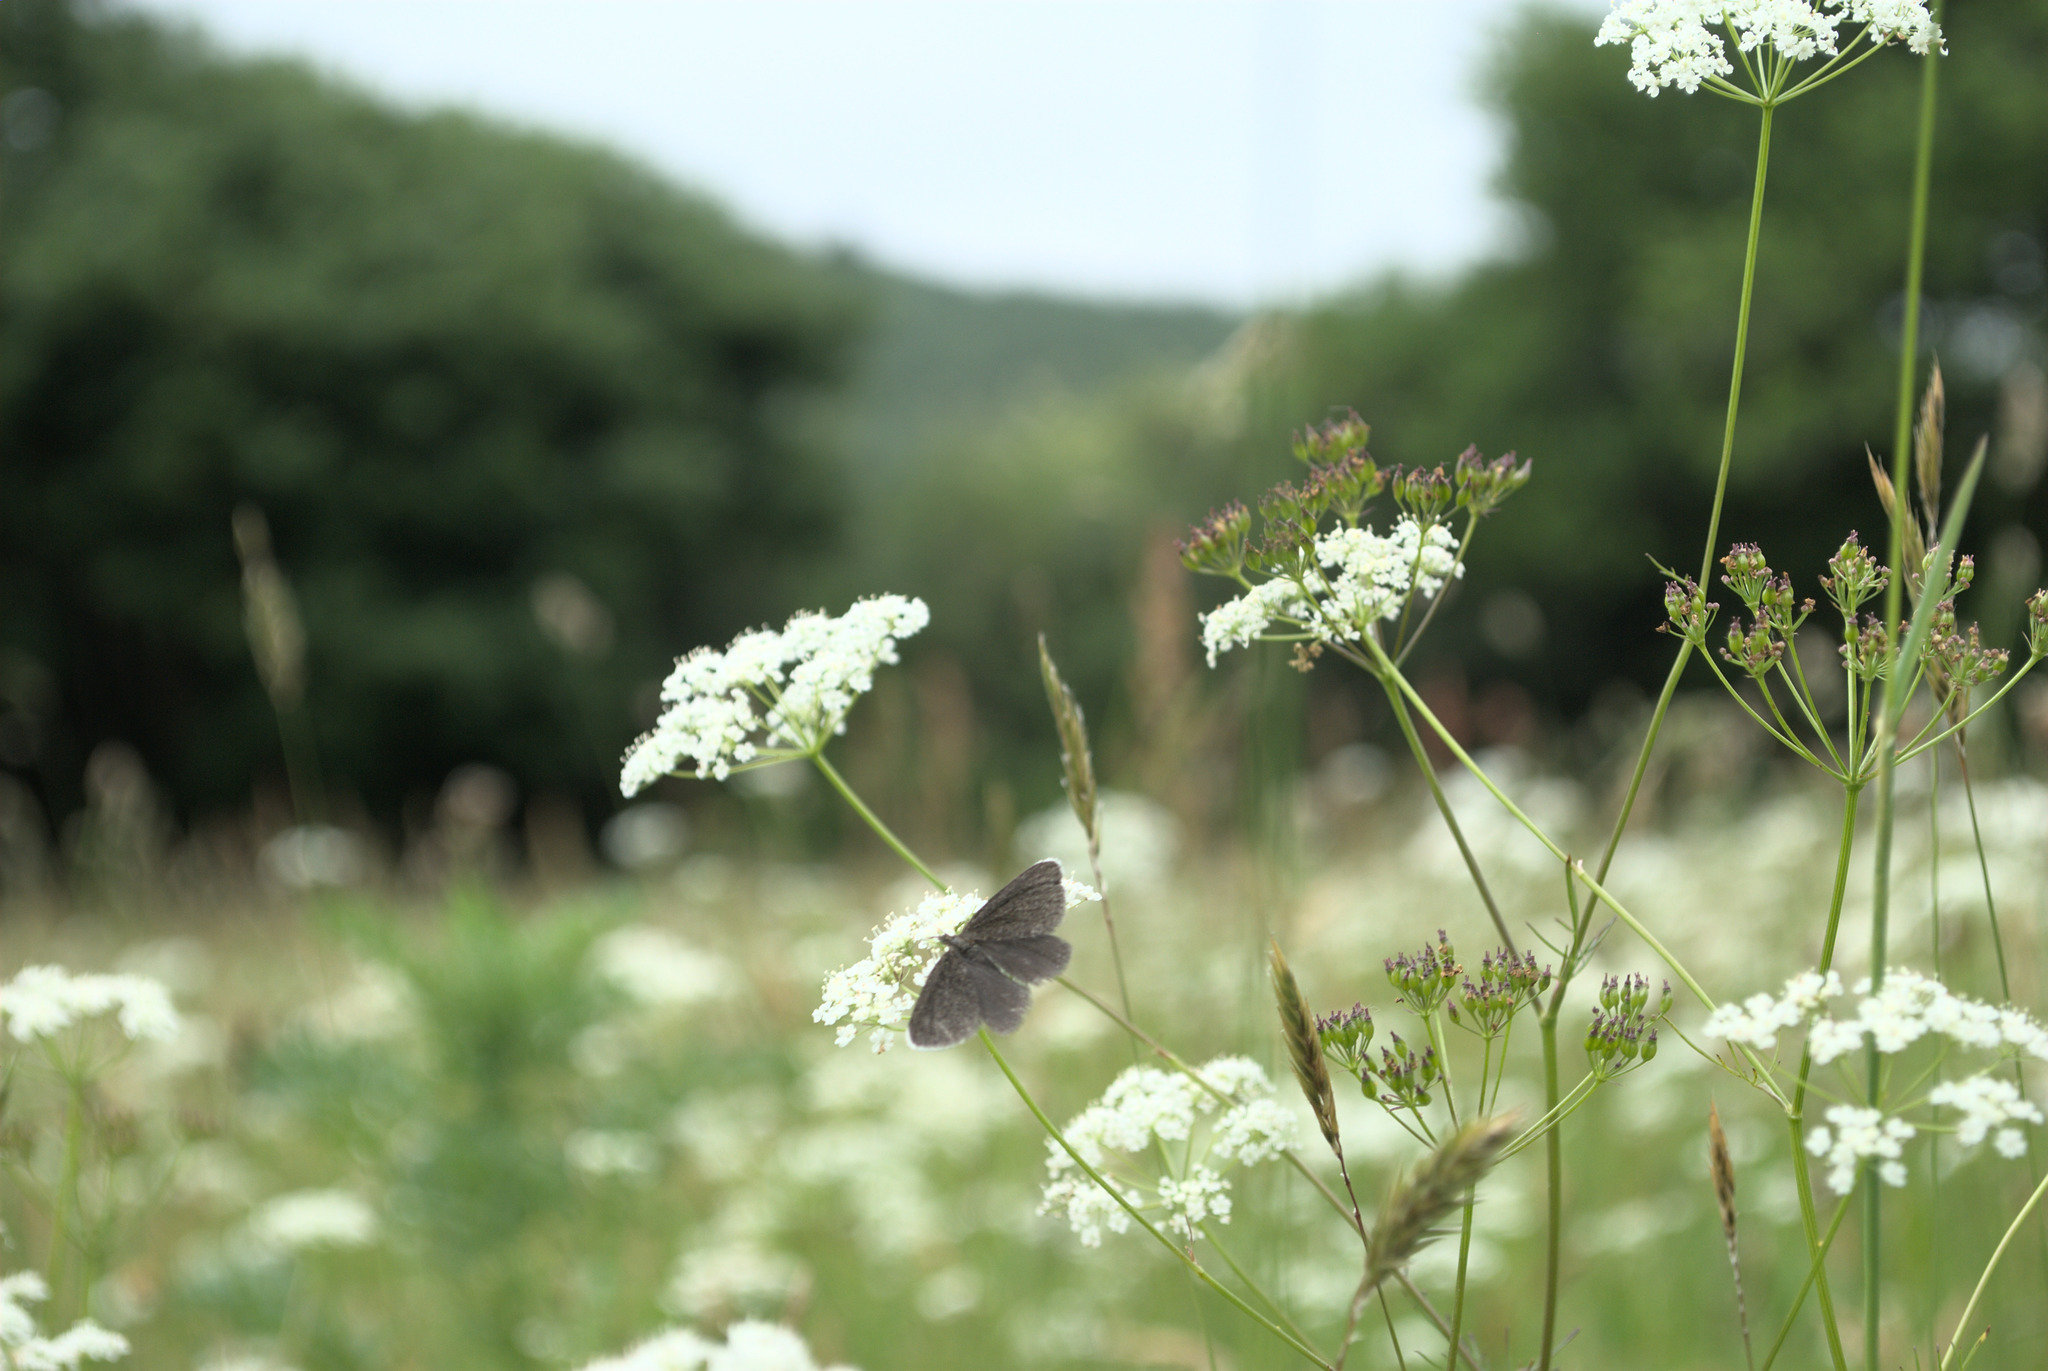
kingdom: Animalia
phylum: Arthropoda
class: Insecta
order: Lepidoptera
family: Geometridae
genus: Odezia
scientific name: Odezia atrata
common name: Chimney sweeper
